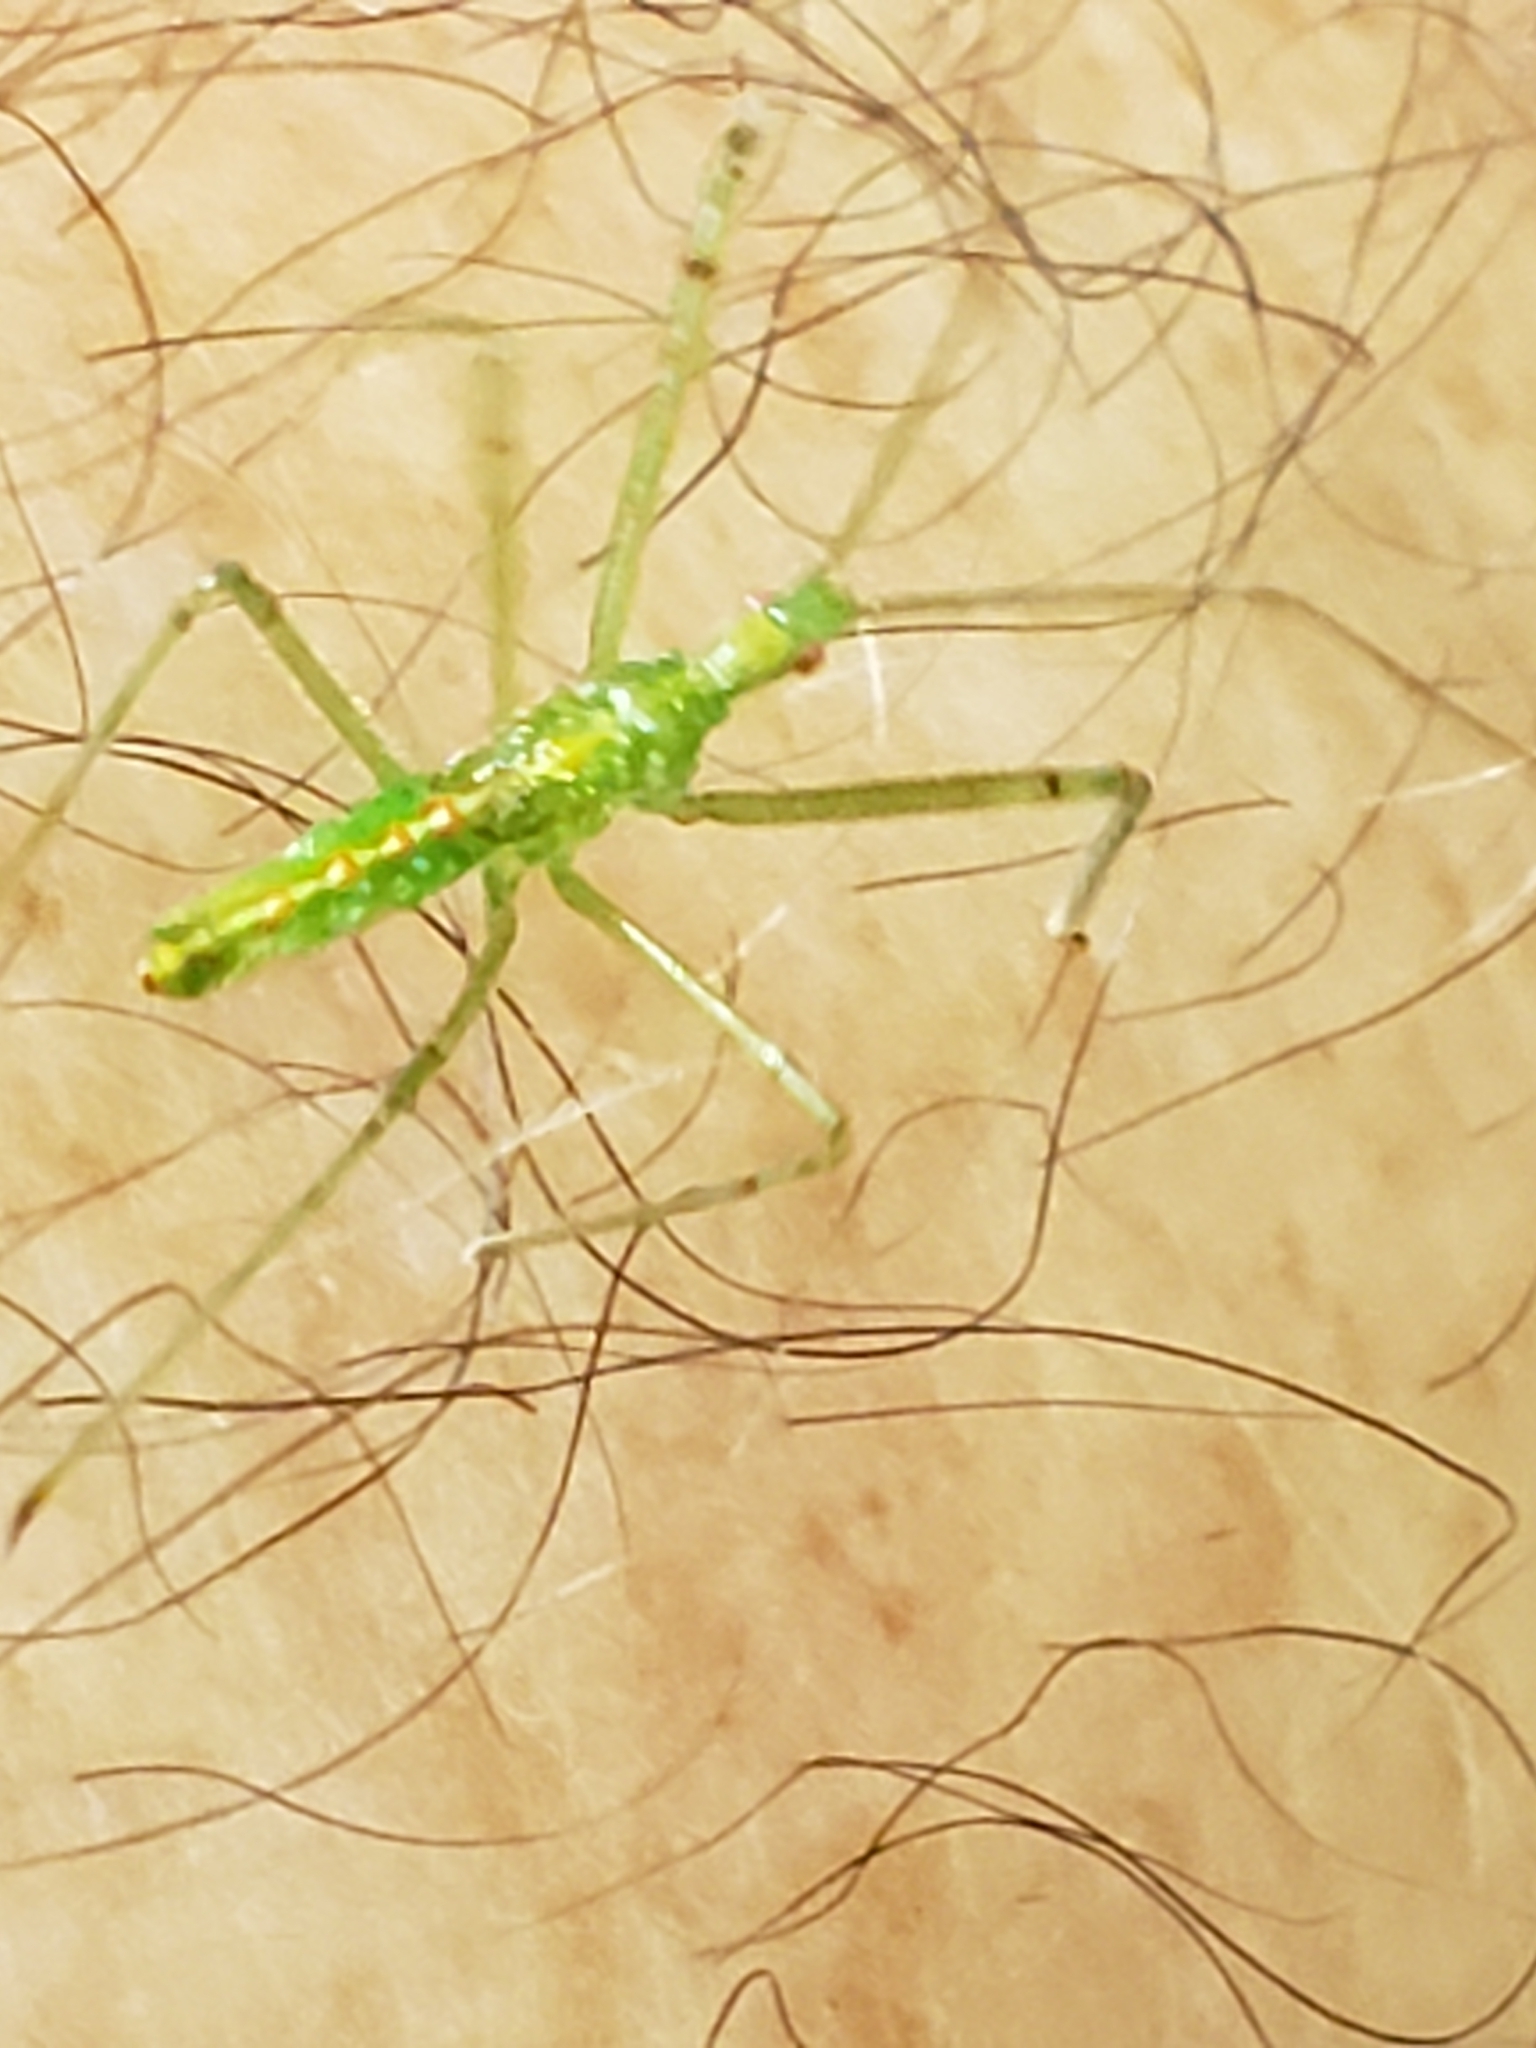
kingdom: Animalia
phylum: Arthropoda
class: Insecta
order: Hemiptera
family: Reduviidae
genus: Zelus
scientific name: Zelus luridus
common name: Pale green assassin bug
